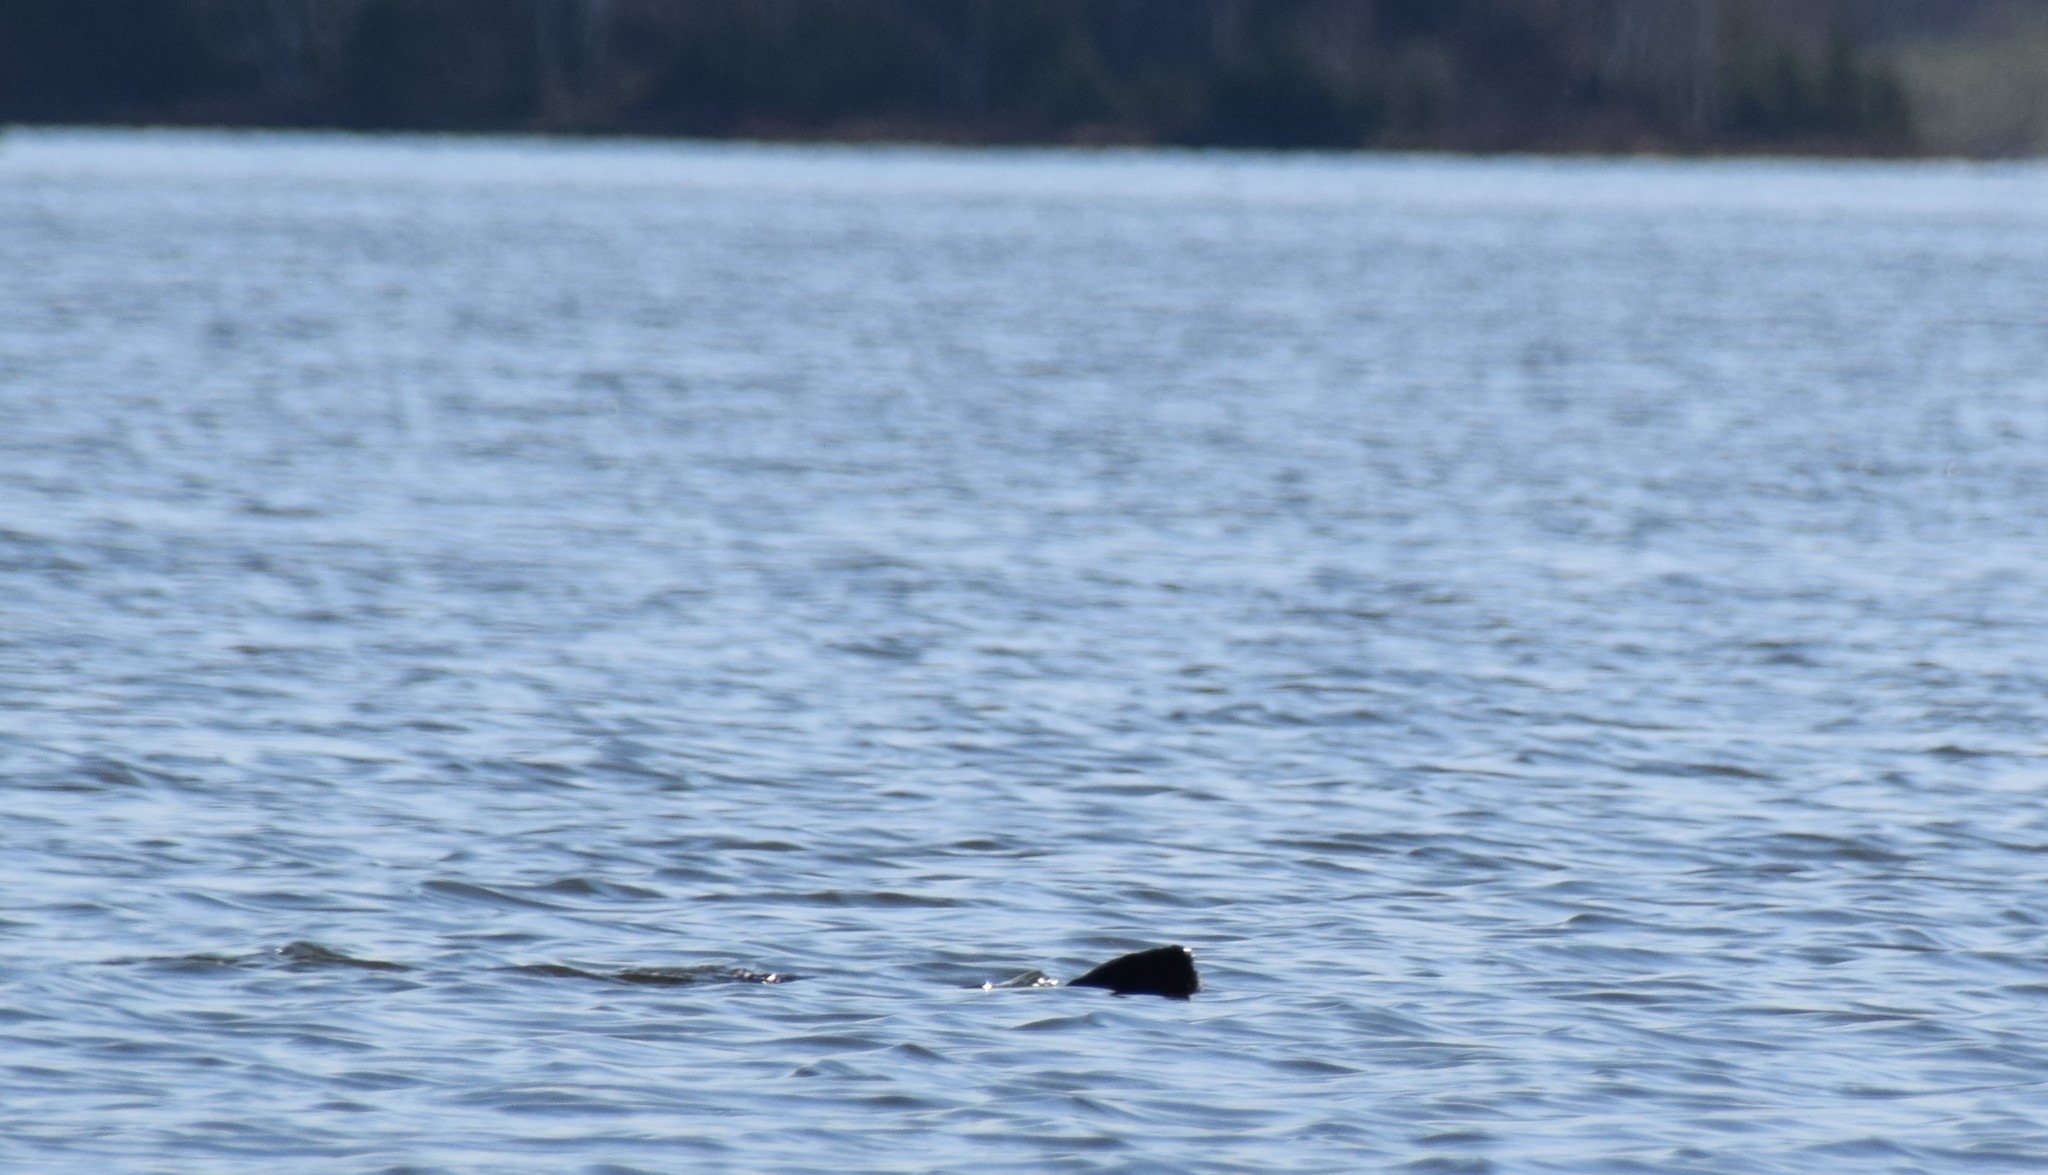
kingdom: Animalia
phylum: Chordata
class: Mammalia
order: Rodentia
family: Castoridae
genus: Castor
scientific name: Castor canadensis
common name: American beaver
